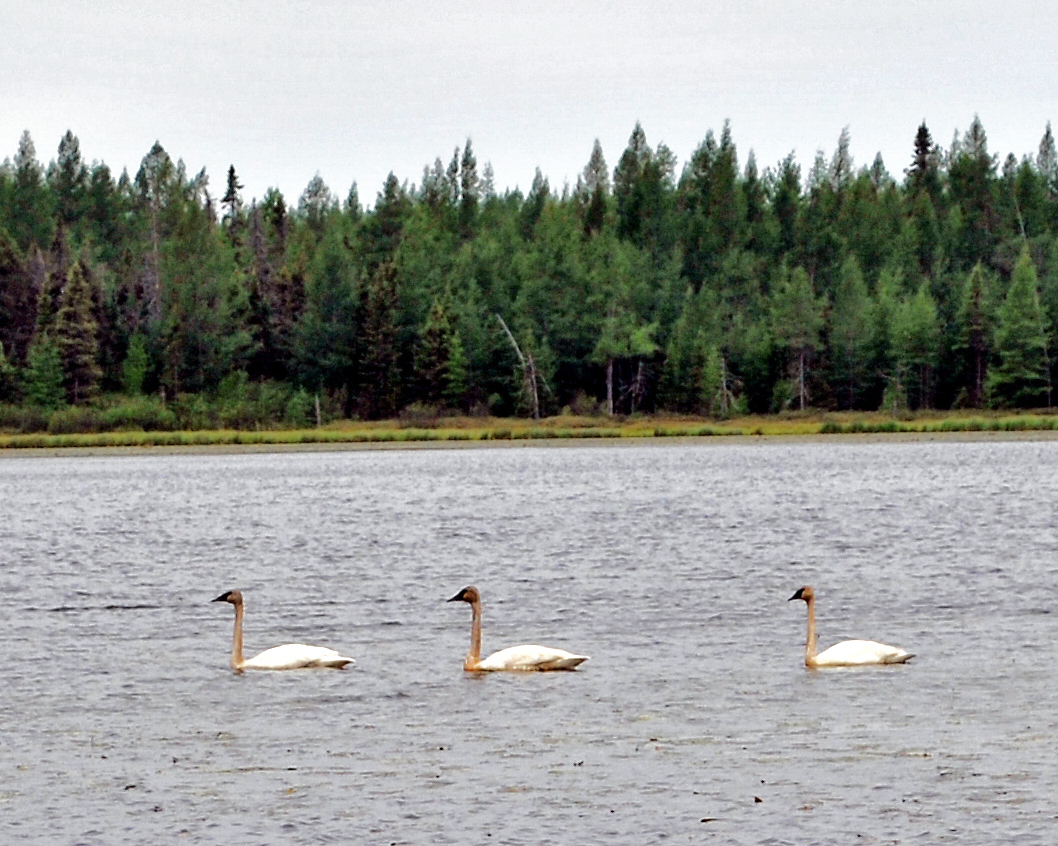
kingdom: Animalia
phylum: Chordata
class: Aves
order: Anseriformes
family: Anatidae
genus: Cygnus
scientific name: Cygnus buccinator
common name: Trumpeter swan
